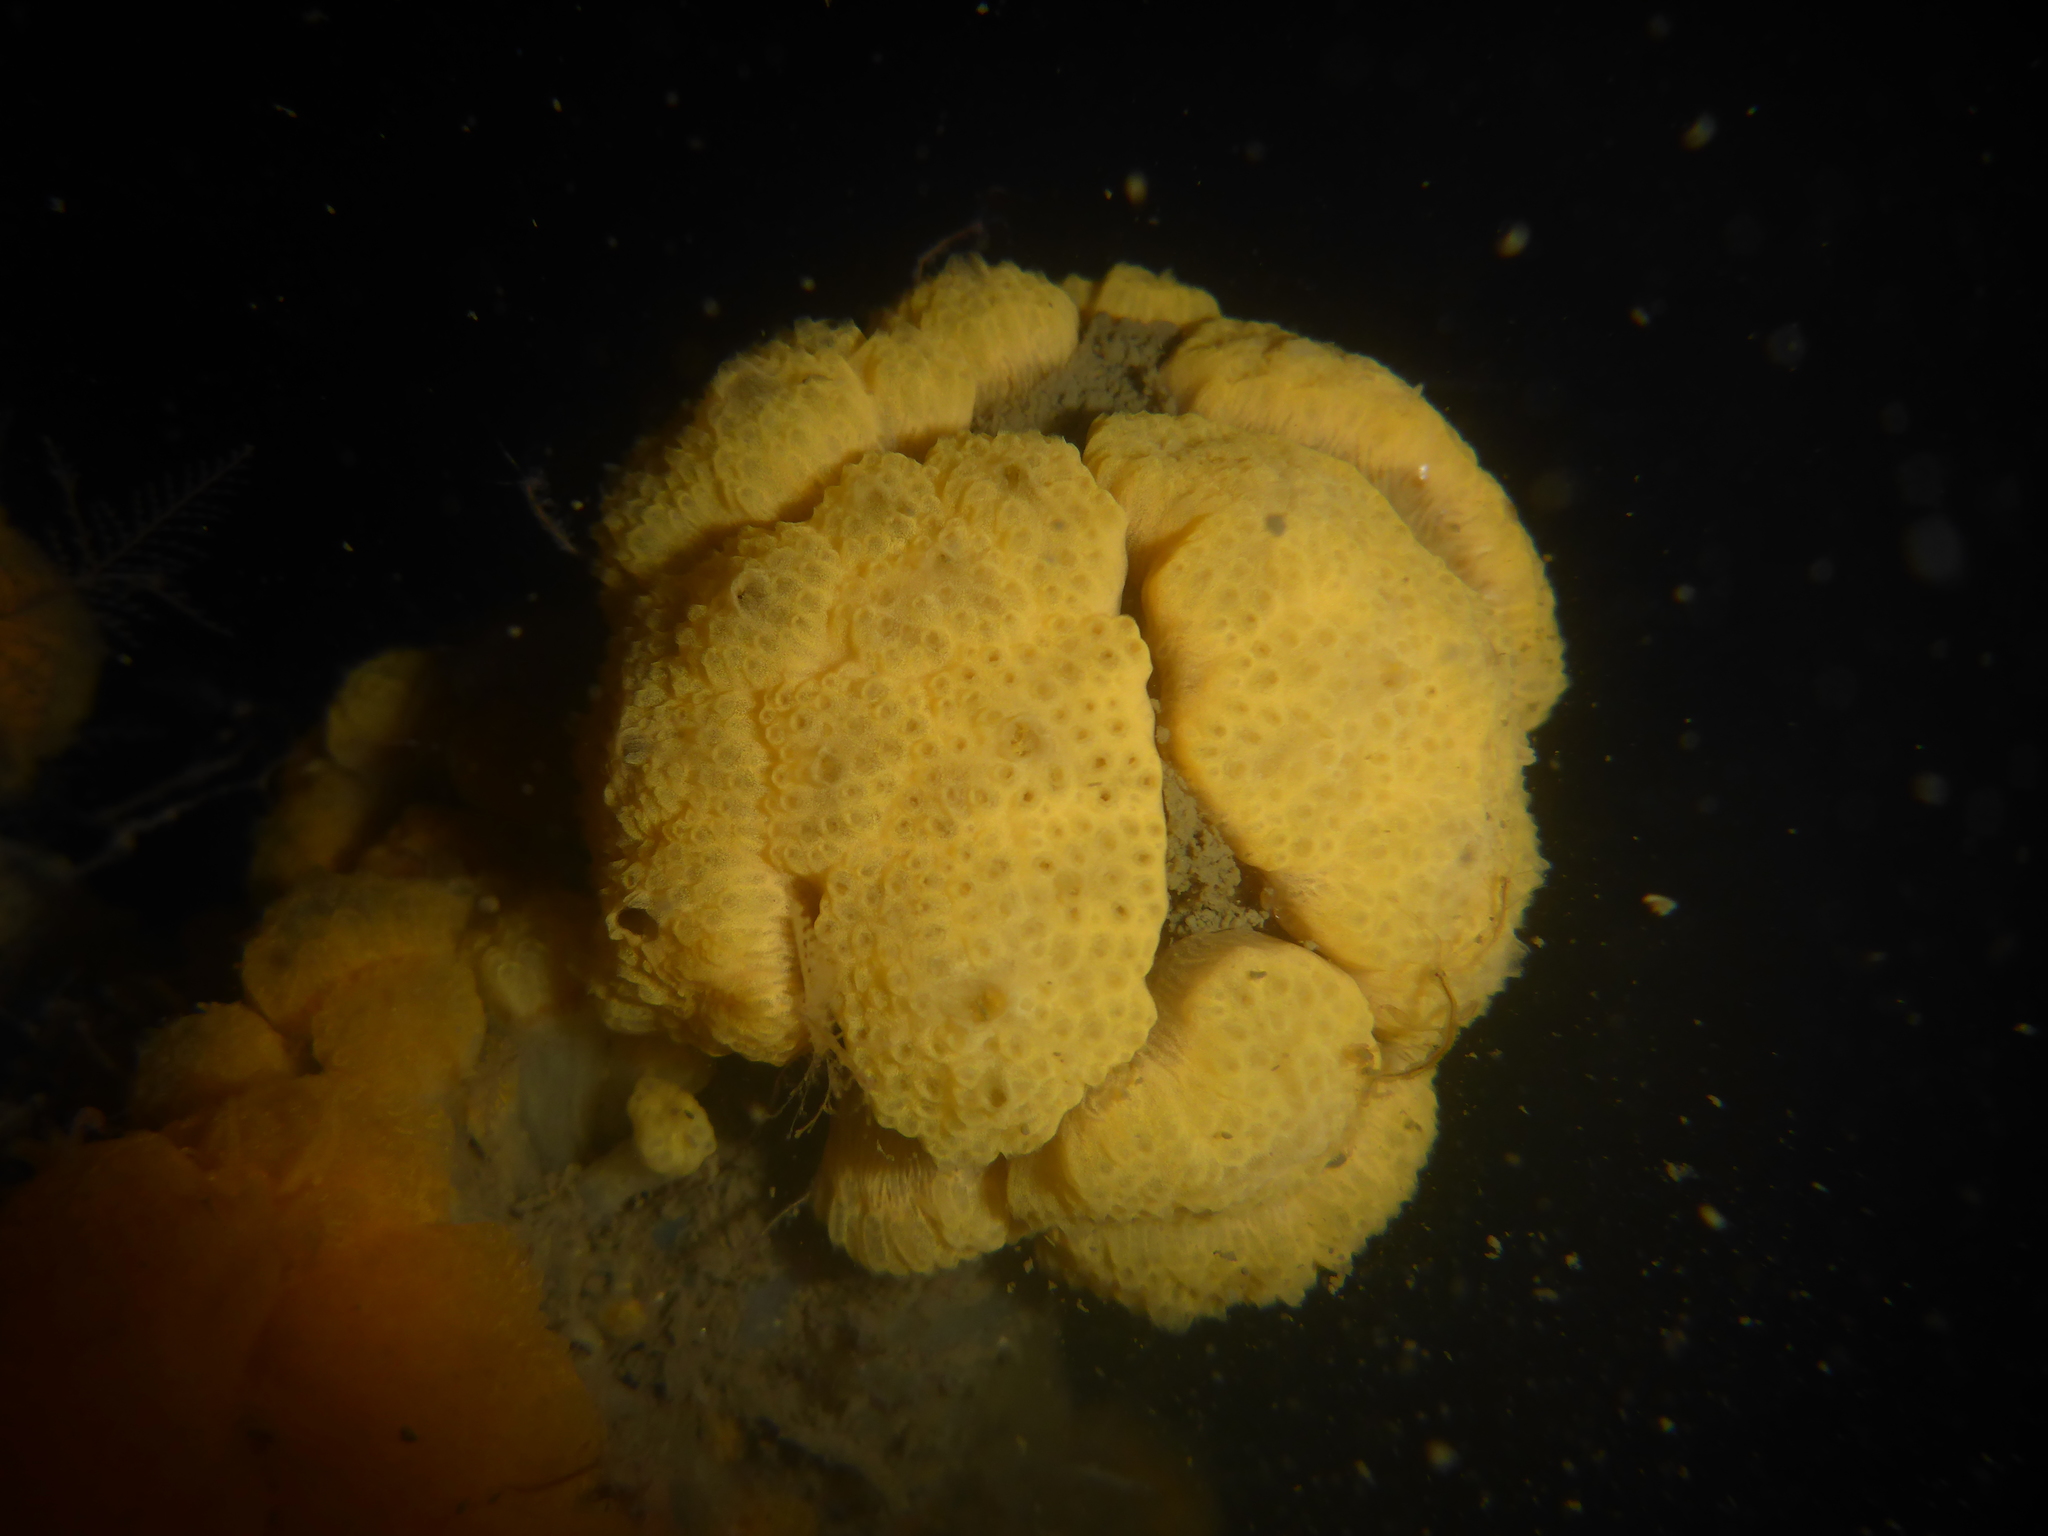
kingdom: Animalia
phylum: Chordata
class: Ascidiacea
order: Aplousobranchia
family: Holozoidae
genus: Distaplia
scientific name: Distaplia occidentalis
